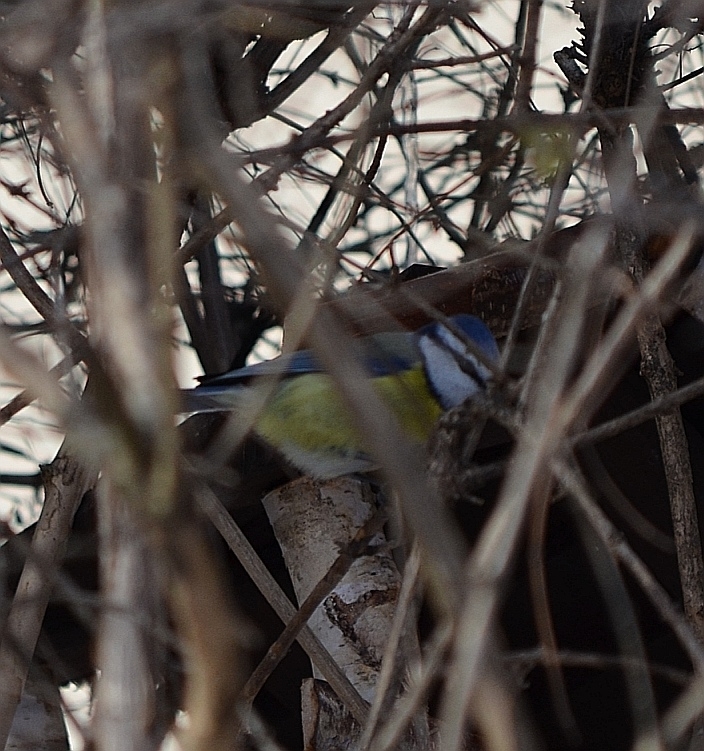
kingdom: Animalia
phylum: Chordata
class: Aves
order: Passeriformes
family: Paridae
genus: Cyanistes
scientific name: Cyanistes caeruleus
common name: Eurasian blue tit
